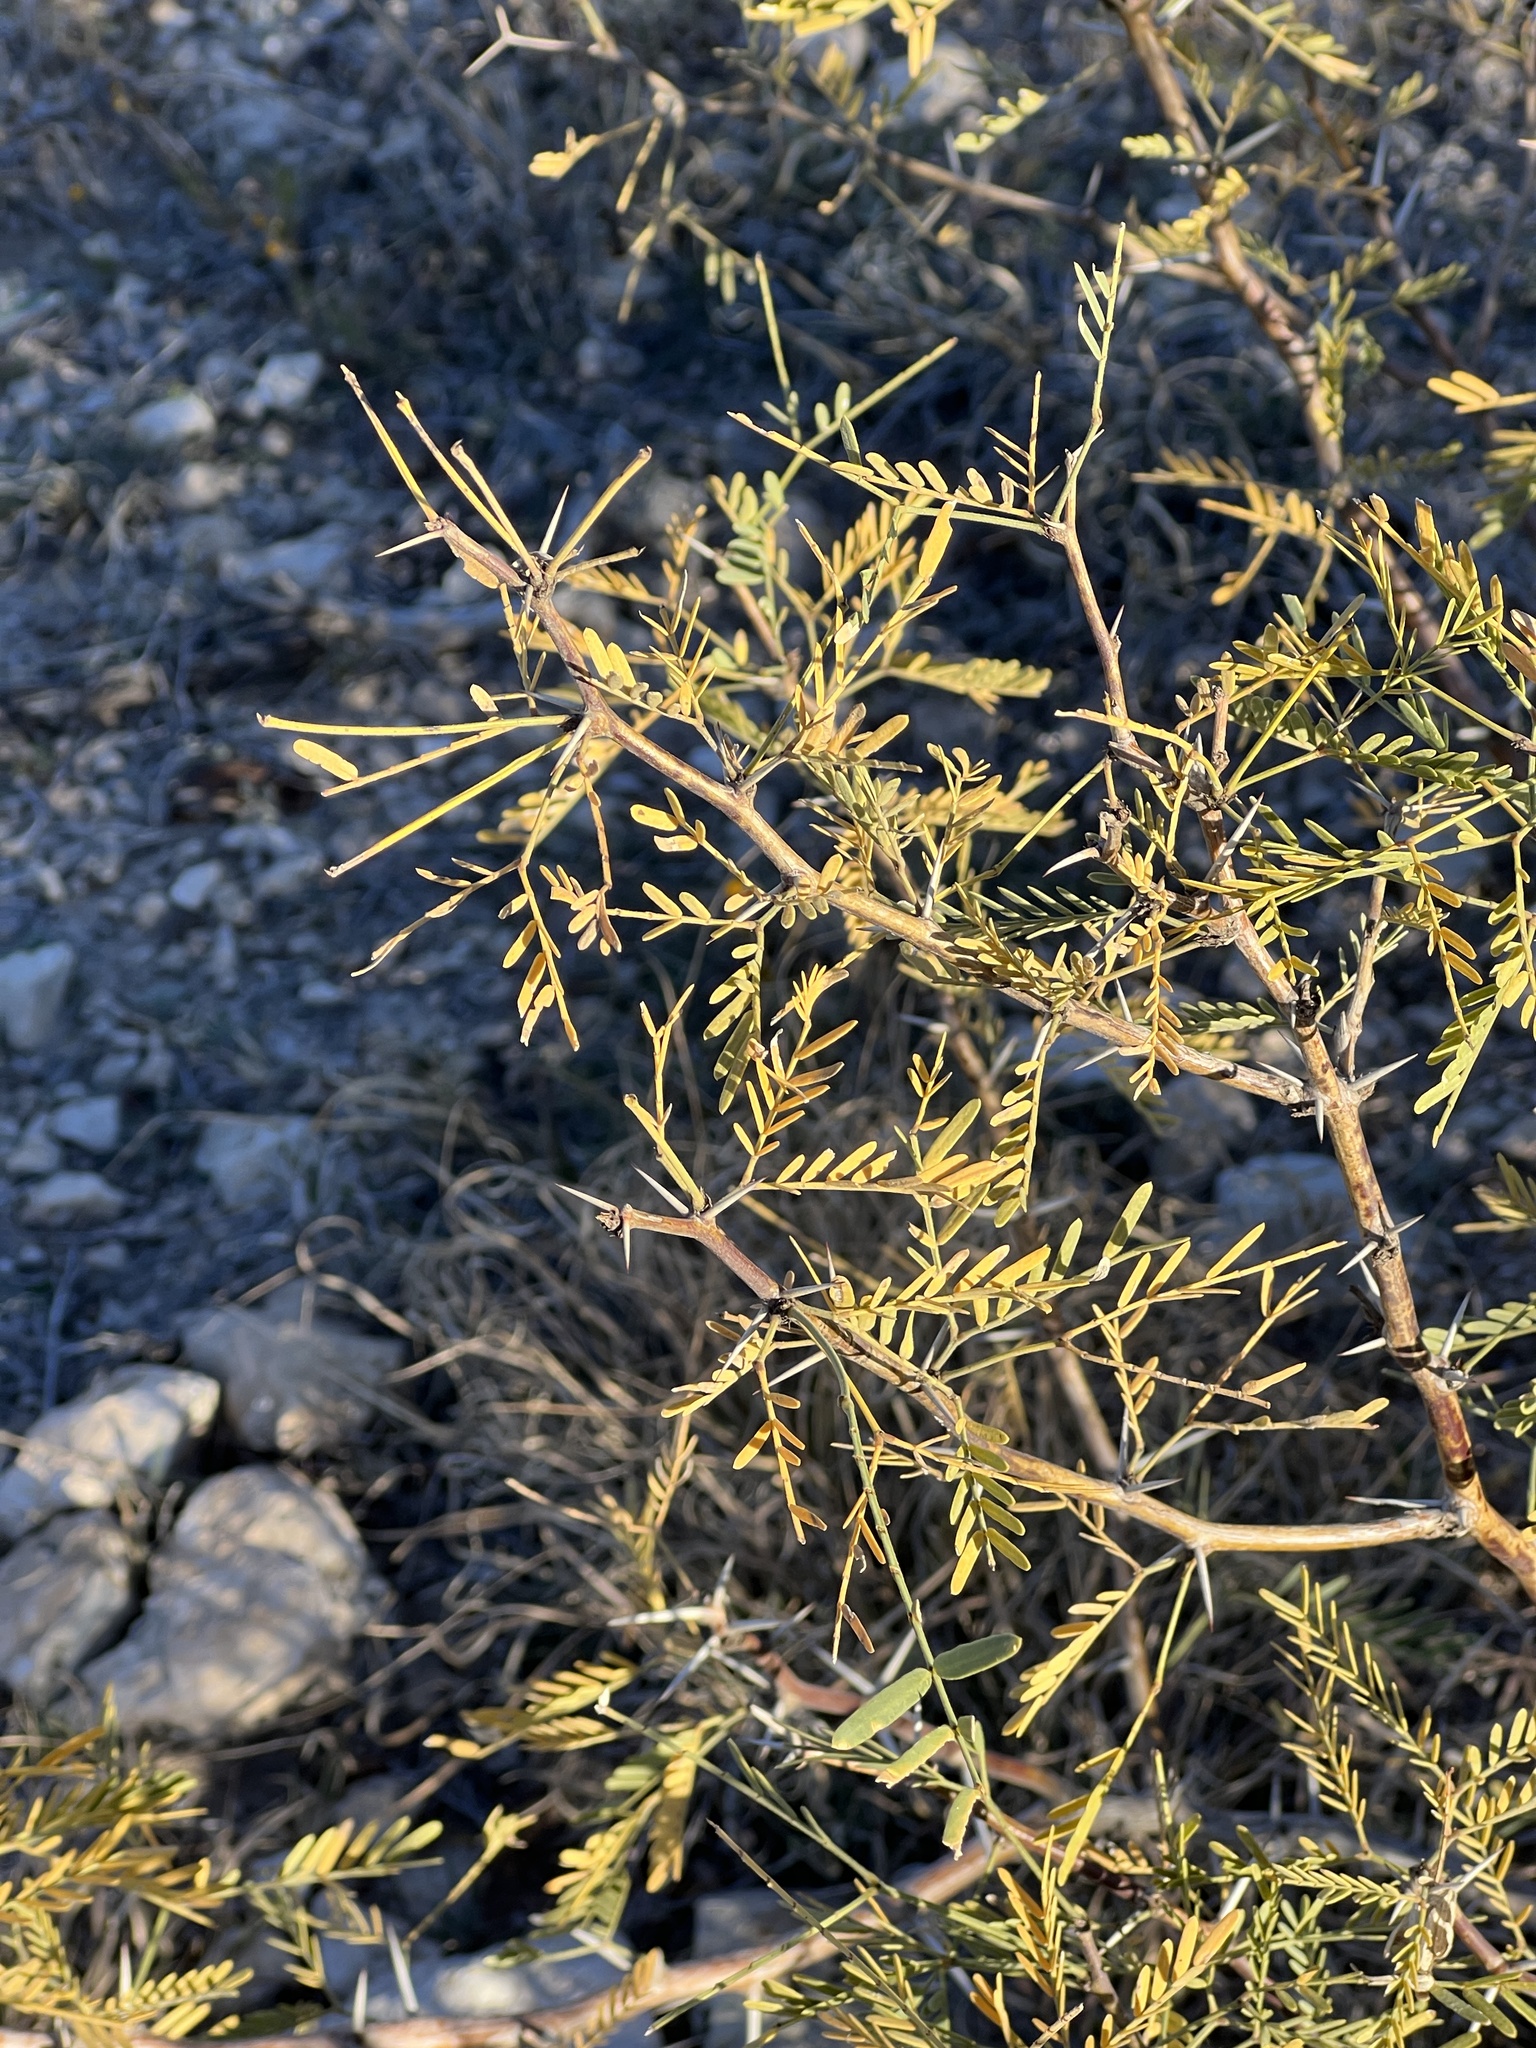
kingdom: Plantae
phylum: Tracheophyta
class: Magnoliopsida
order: Fabales
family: Fabaceae
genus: Prosopis
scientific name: Prosopis glandulosa
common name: Honey mesquite
